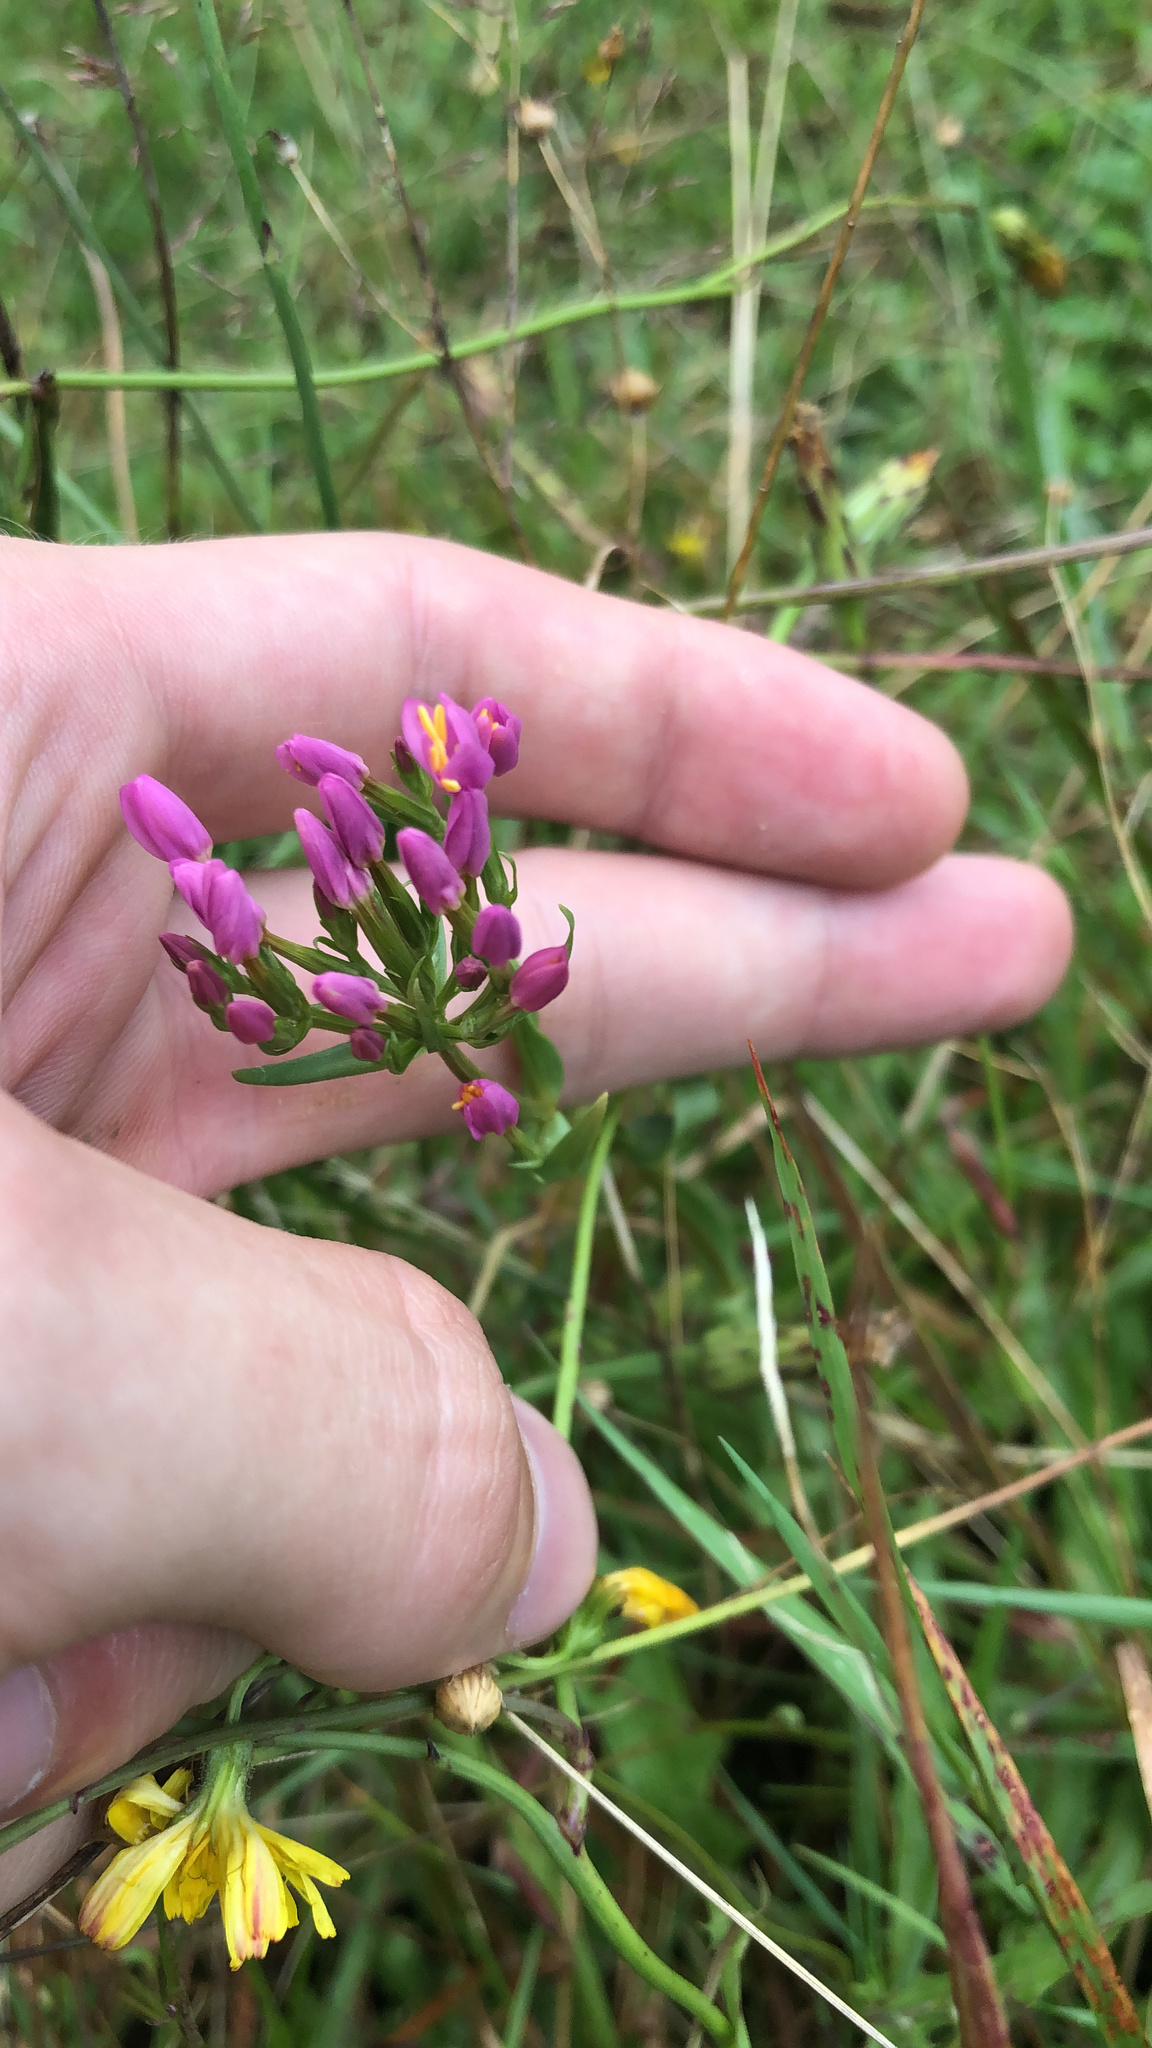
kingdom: Plantae
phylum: Tracheophyta
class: Magnoliopsida
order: Gentianales
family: Gentianaceae
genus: Centaurium
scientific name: Centaurium erythraea
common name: Common centaury
